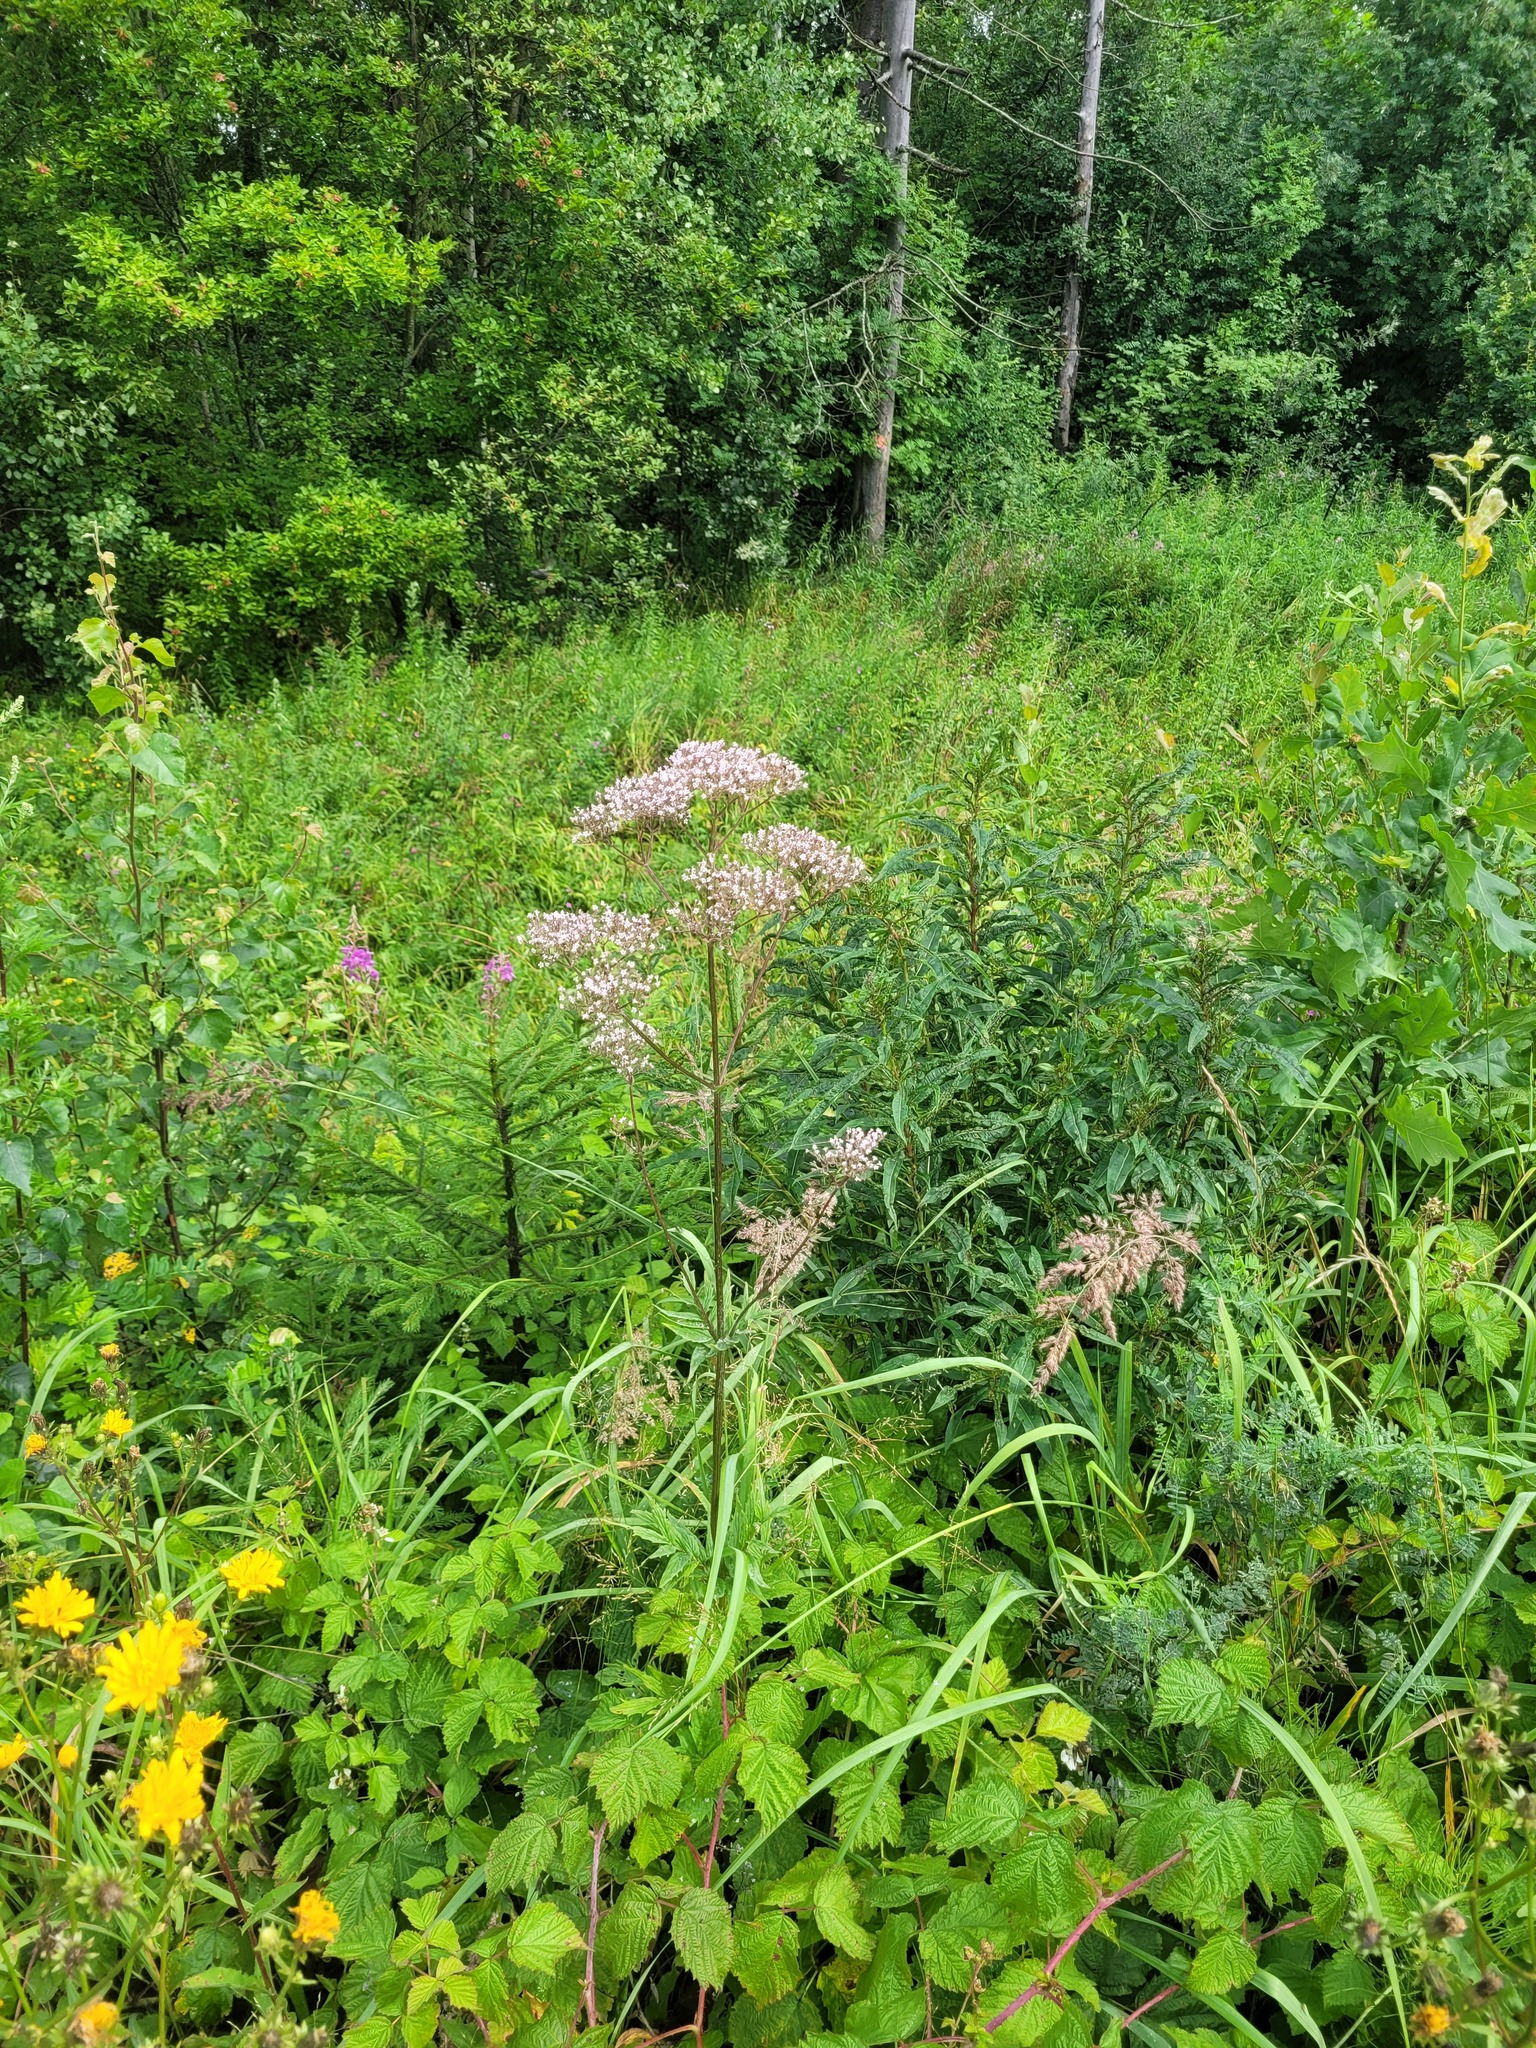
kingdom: Plantae
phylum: Tracheophyta
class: Magnoliopsida
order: Dipsacales
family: Caprifoliaceae
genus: Valeriana
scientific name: Valeriana officinalis
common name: Common valerian
